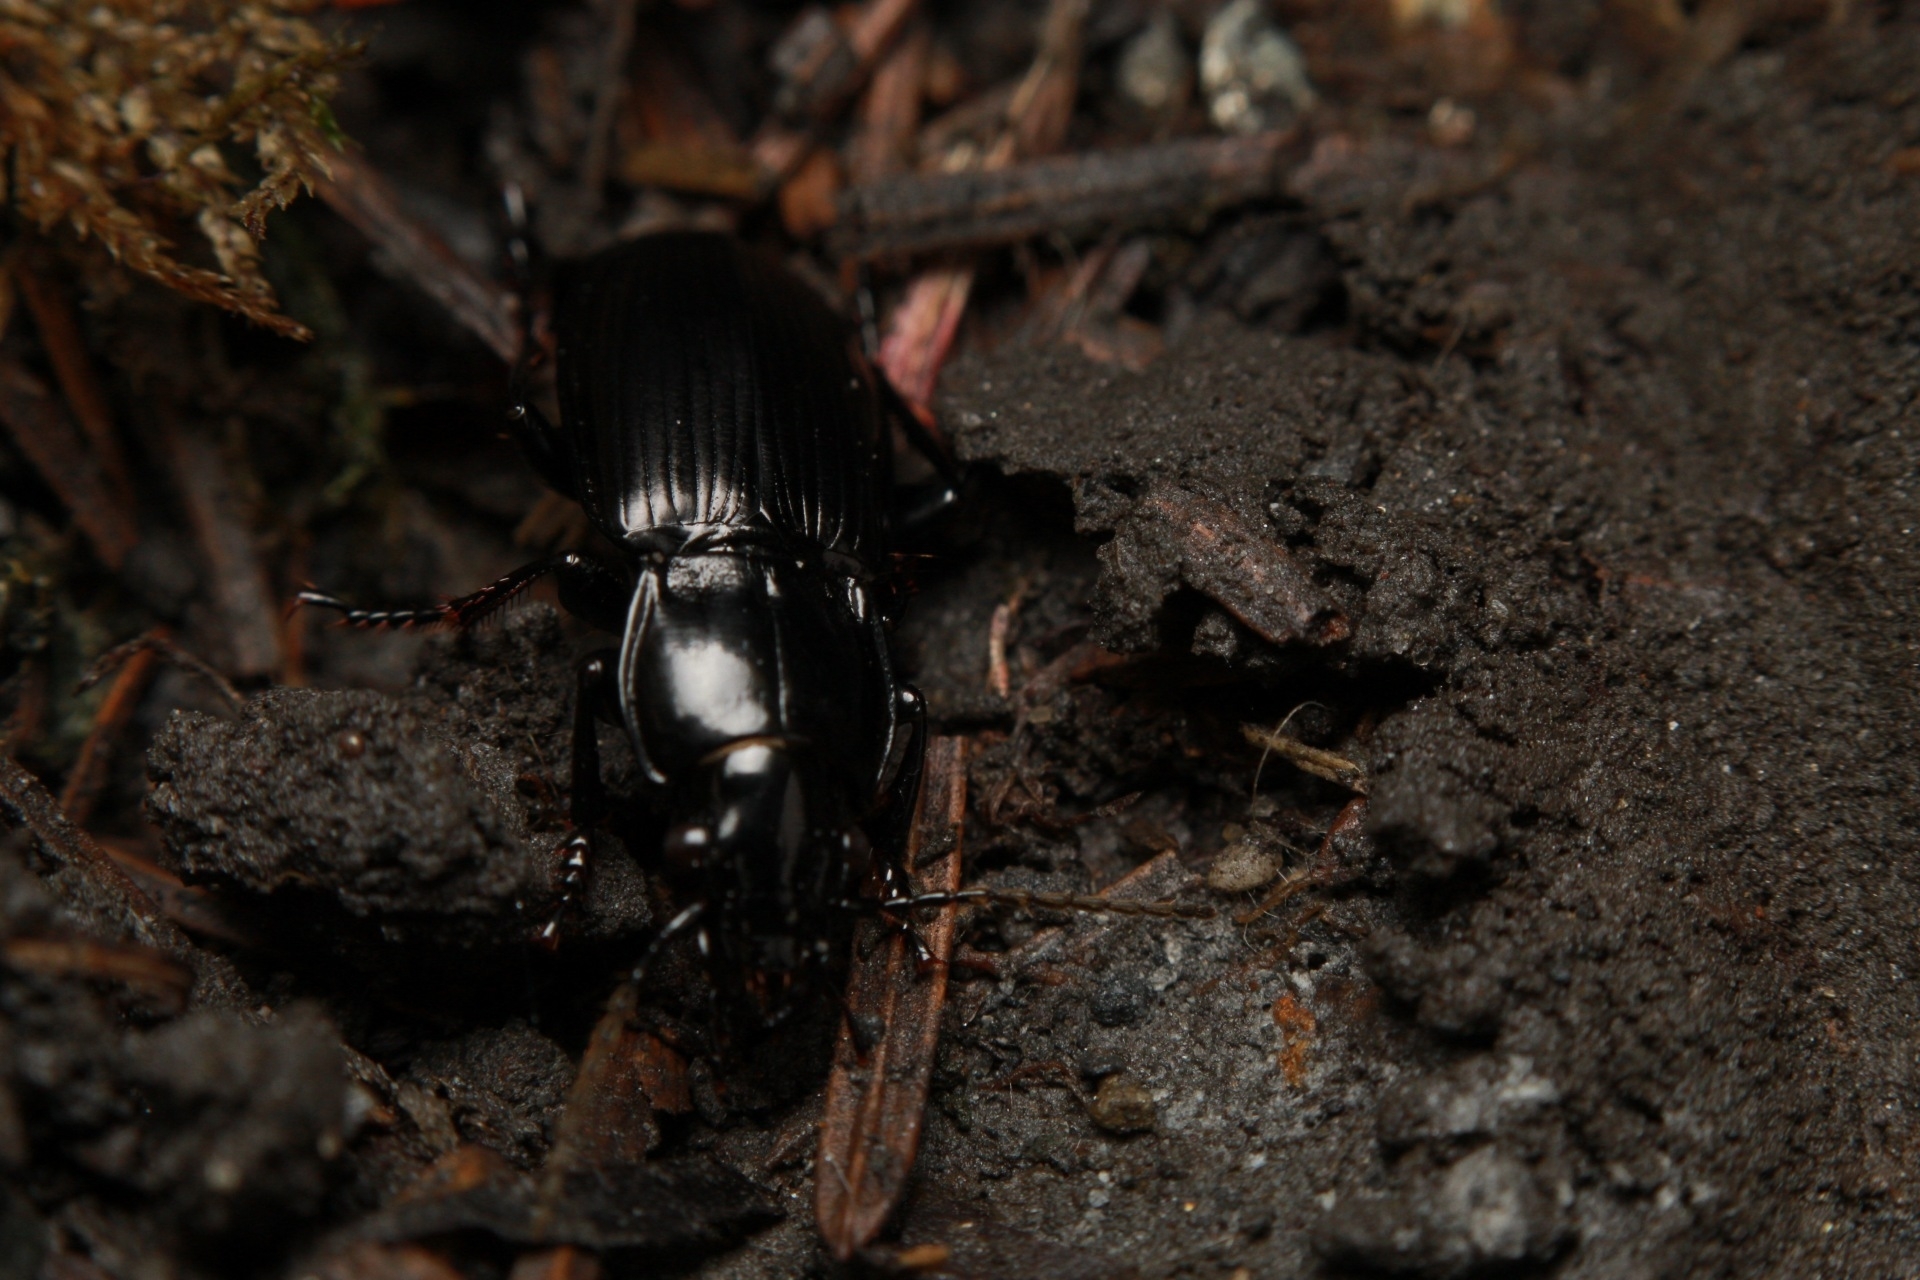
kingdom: Animalia
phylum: Arthropoda
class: Insecta
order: Coleoptera
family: Carabidae
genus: Pterostichus
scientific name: Pterostichus melanarius
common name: European dark harp ground beetle
